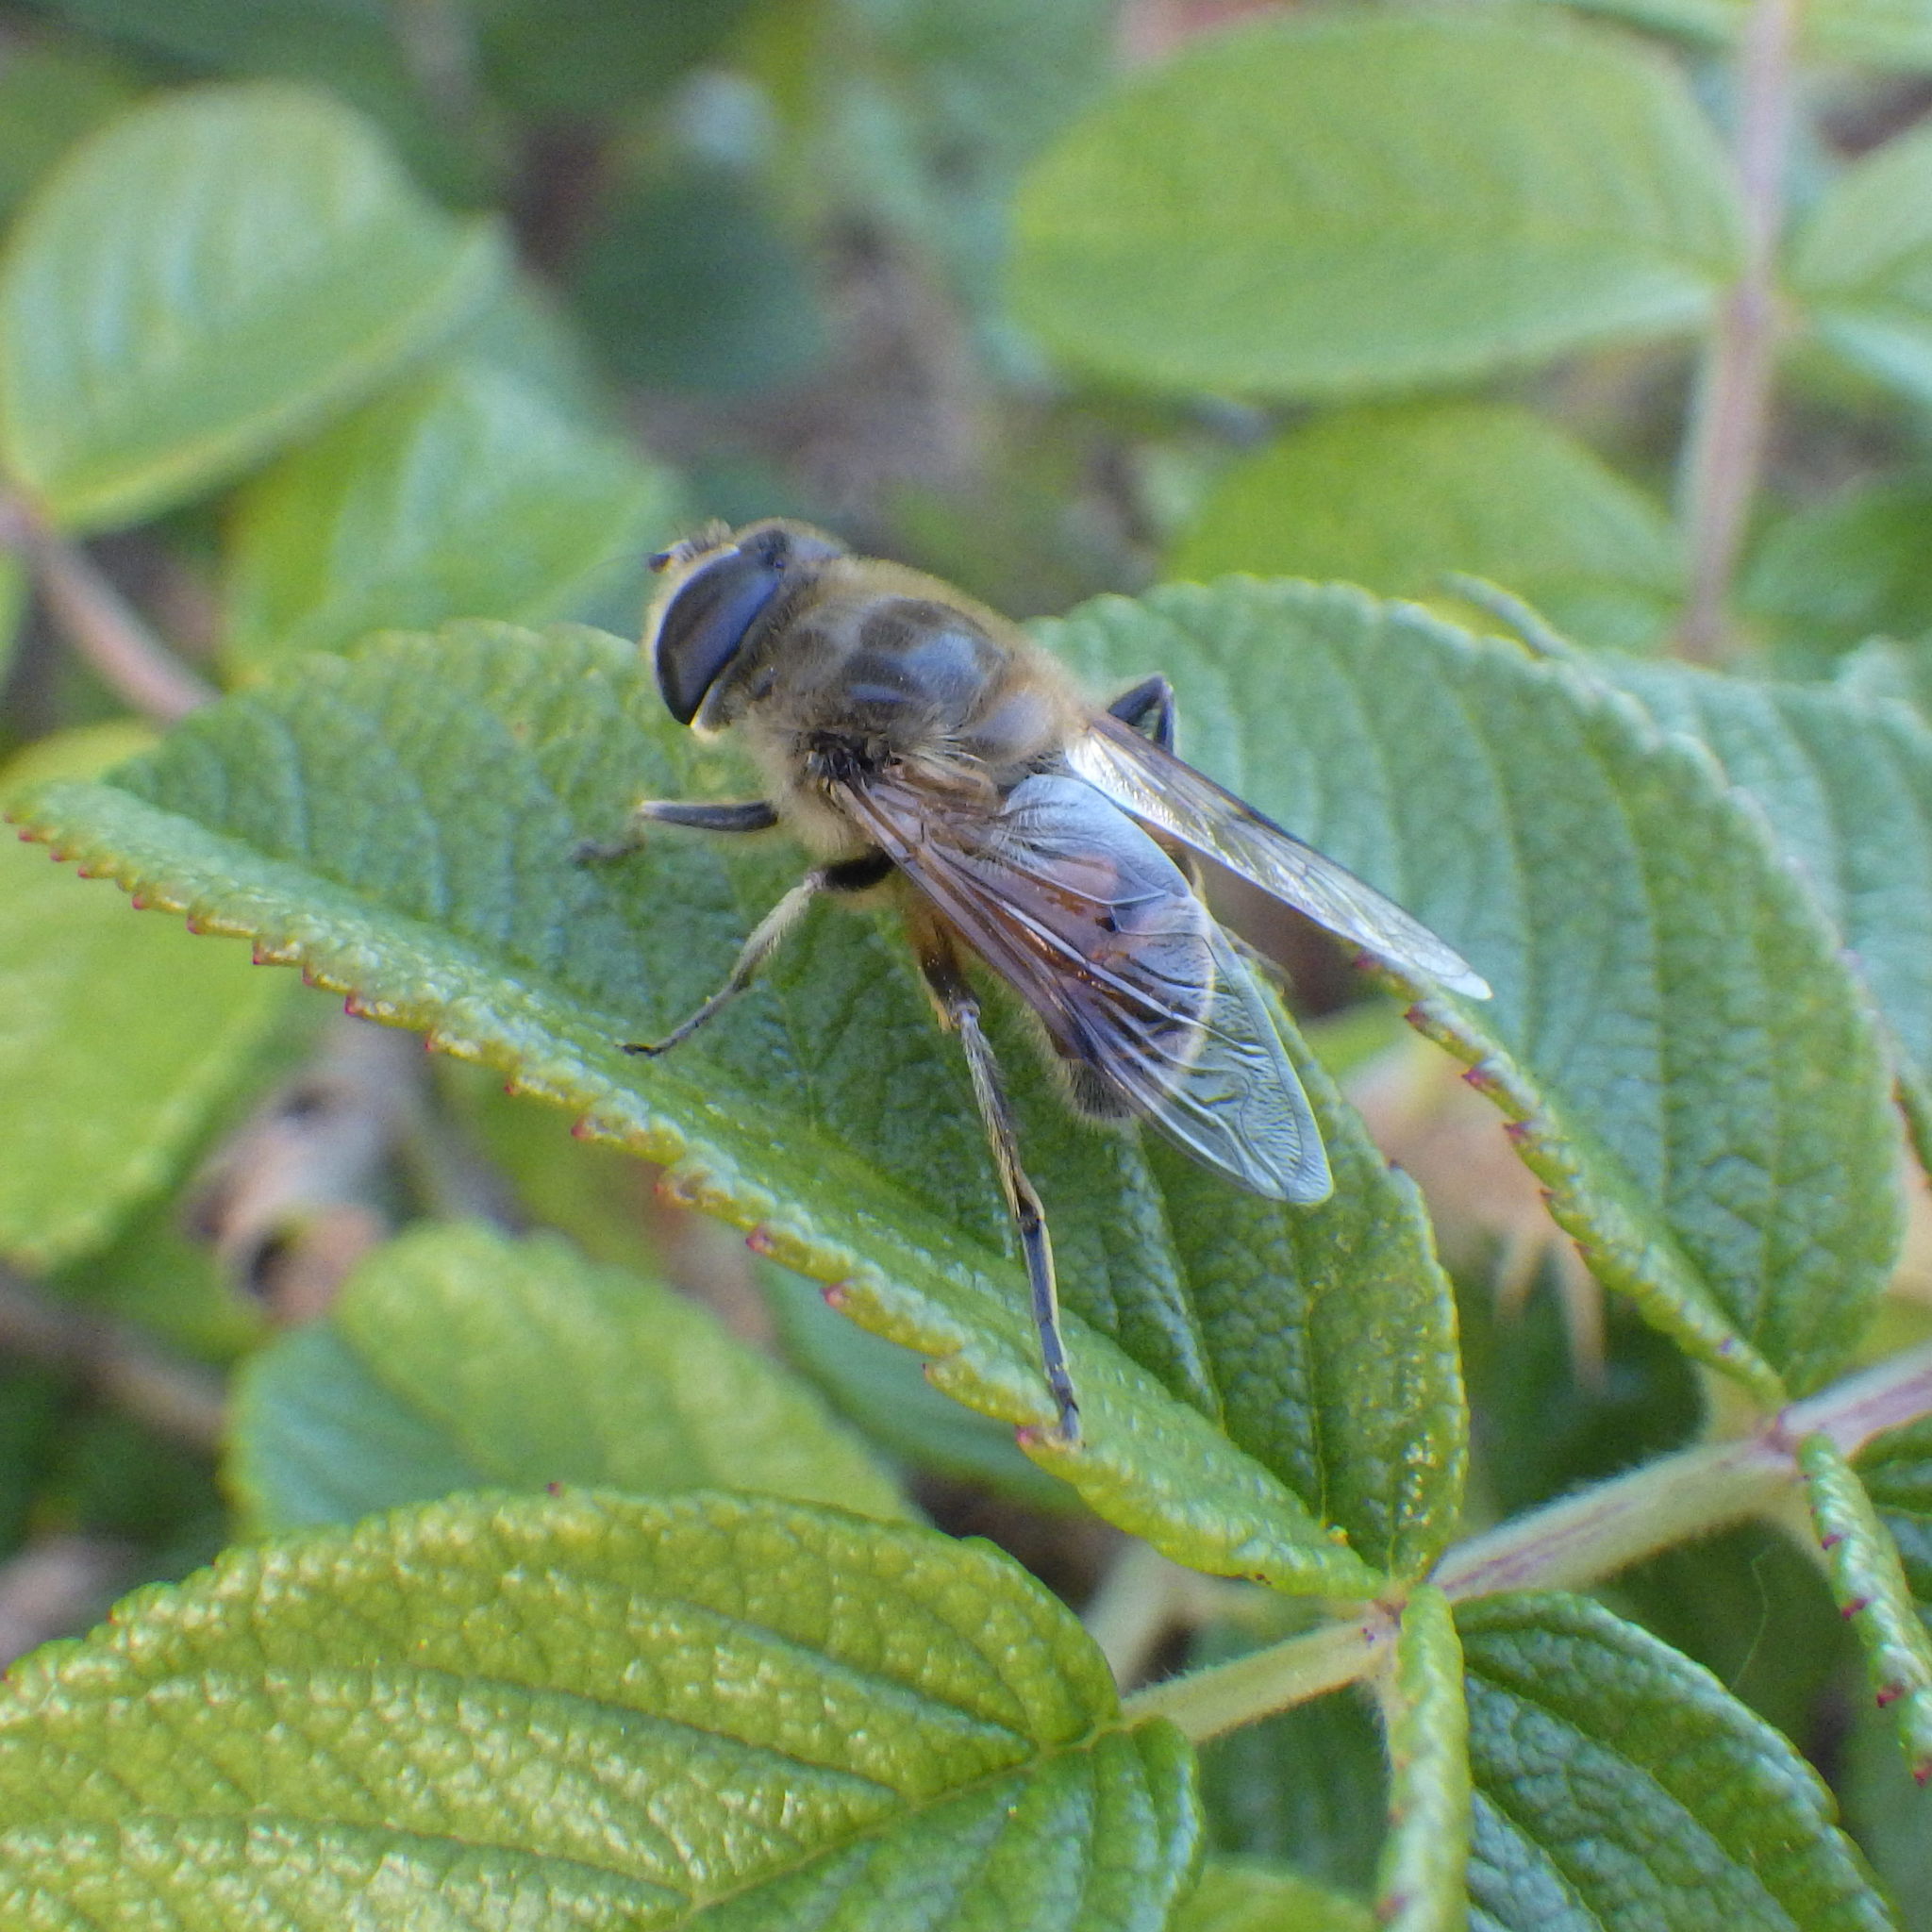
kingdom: Animalia
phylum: Arthropoda
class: Insecta
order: Diptera
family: Syrphidae
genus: Eristalis
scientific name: Eristalis tenax
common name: Drone fly
